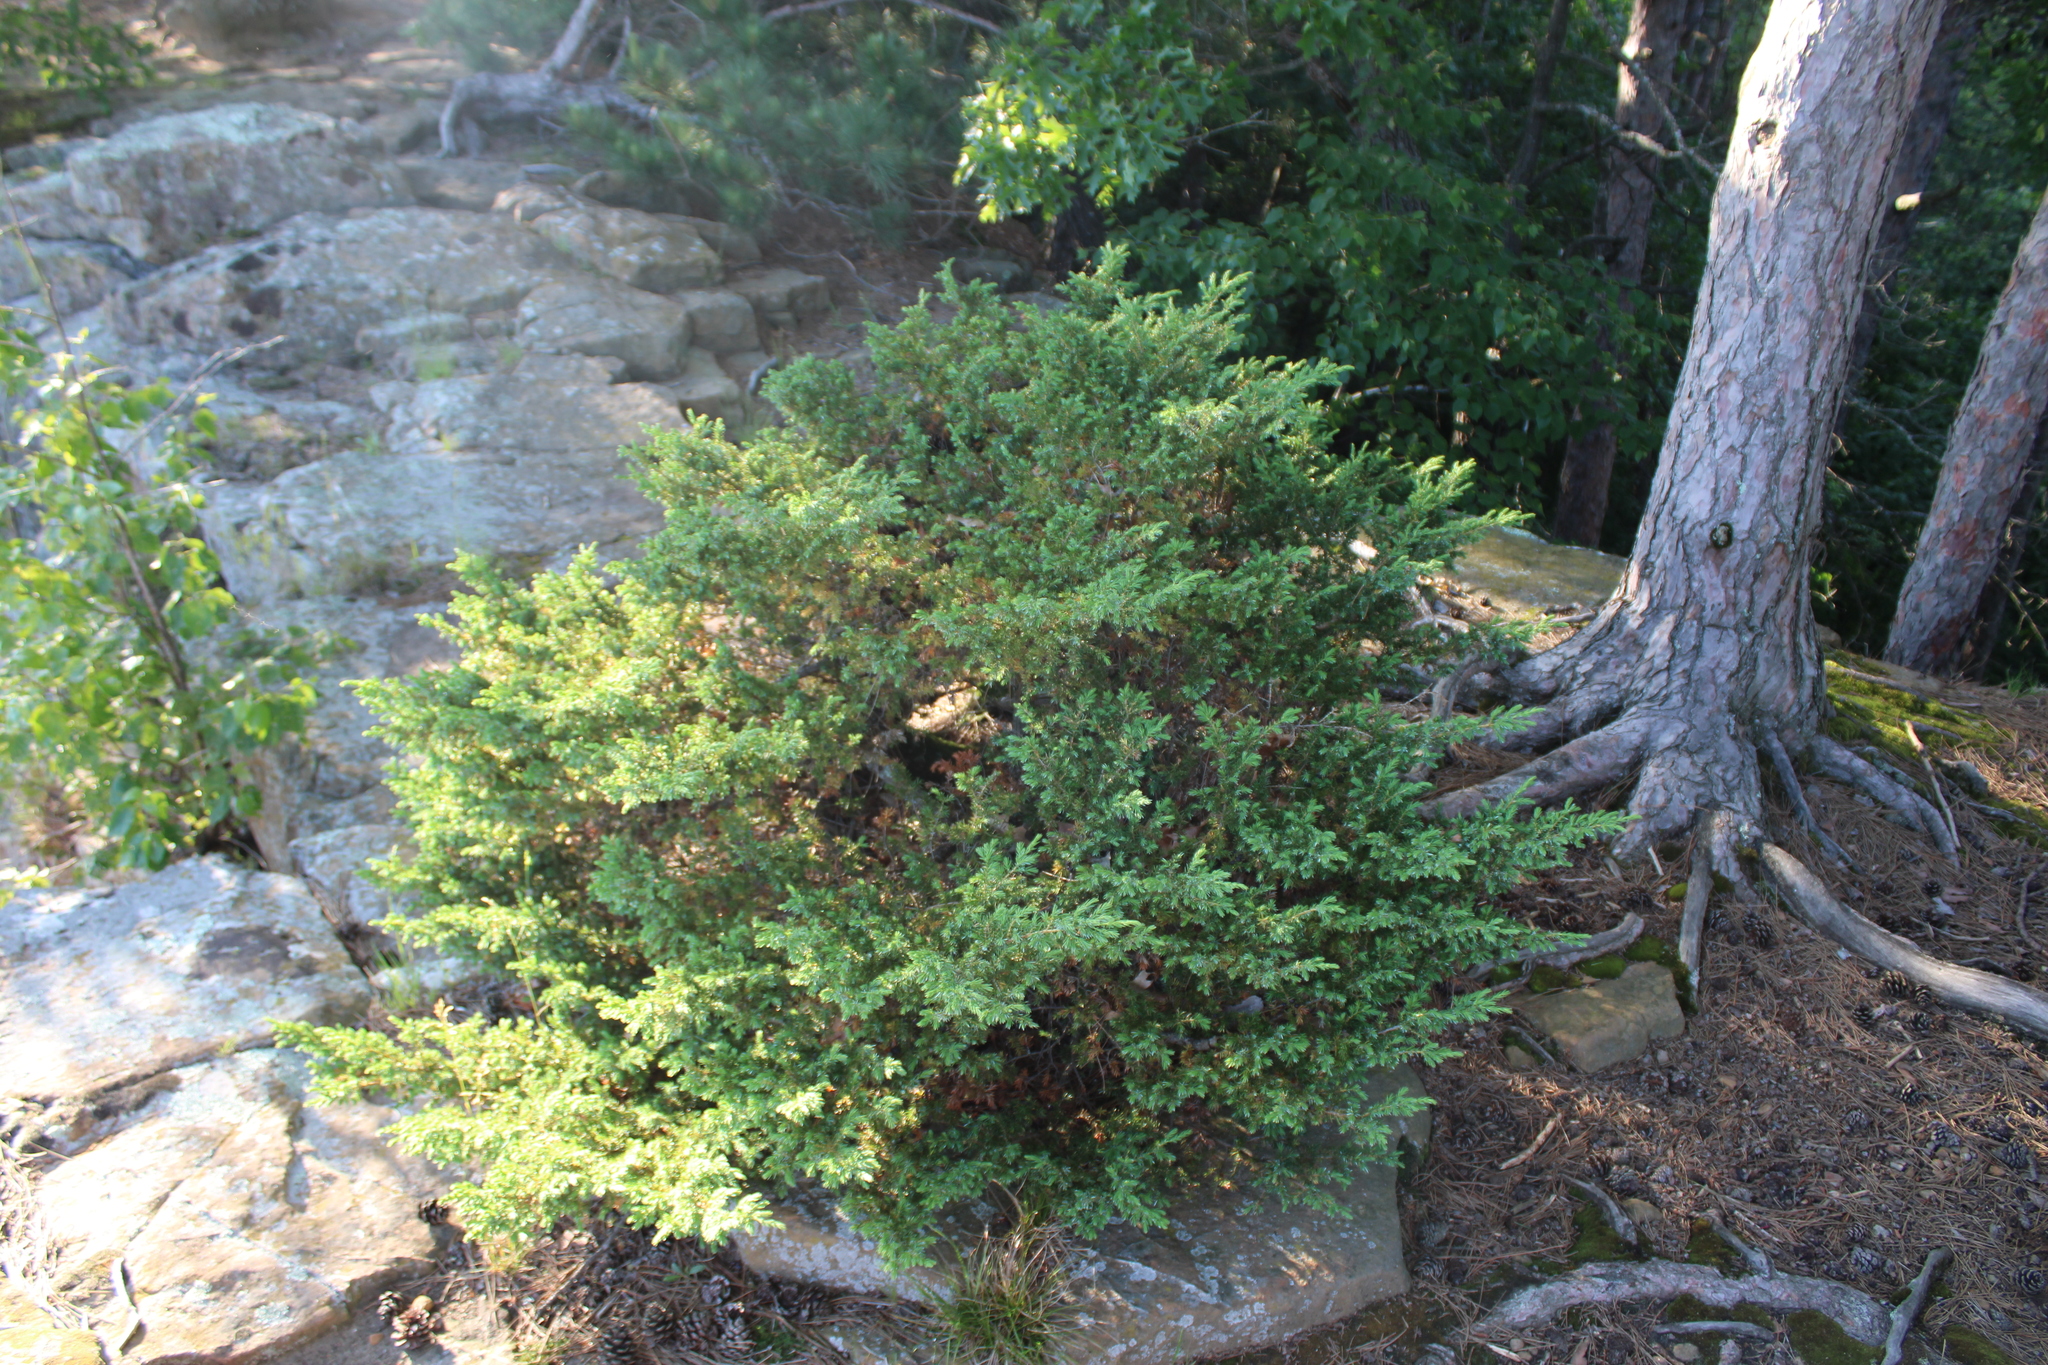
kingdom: Plantae
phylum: Tracheophyta
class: Pinopsida
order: Pinales
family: Cupressaceae
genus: Juniperus
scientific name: Juniperus communis
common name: Common juniper
